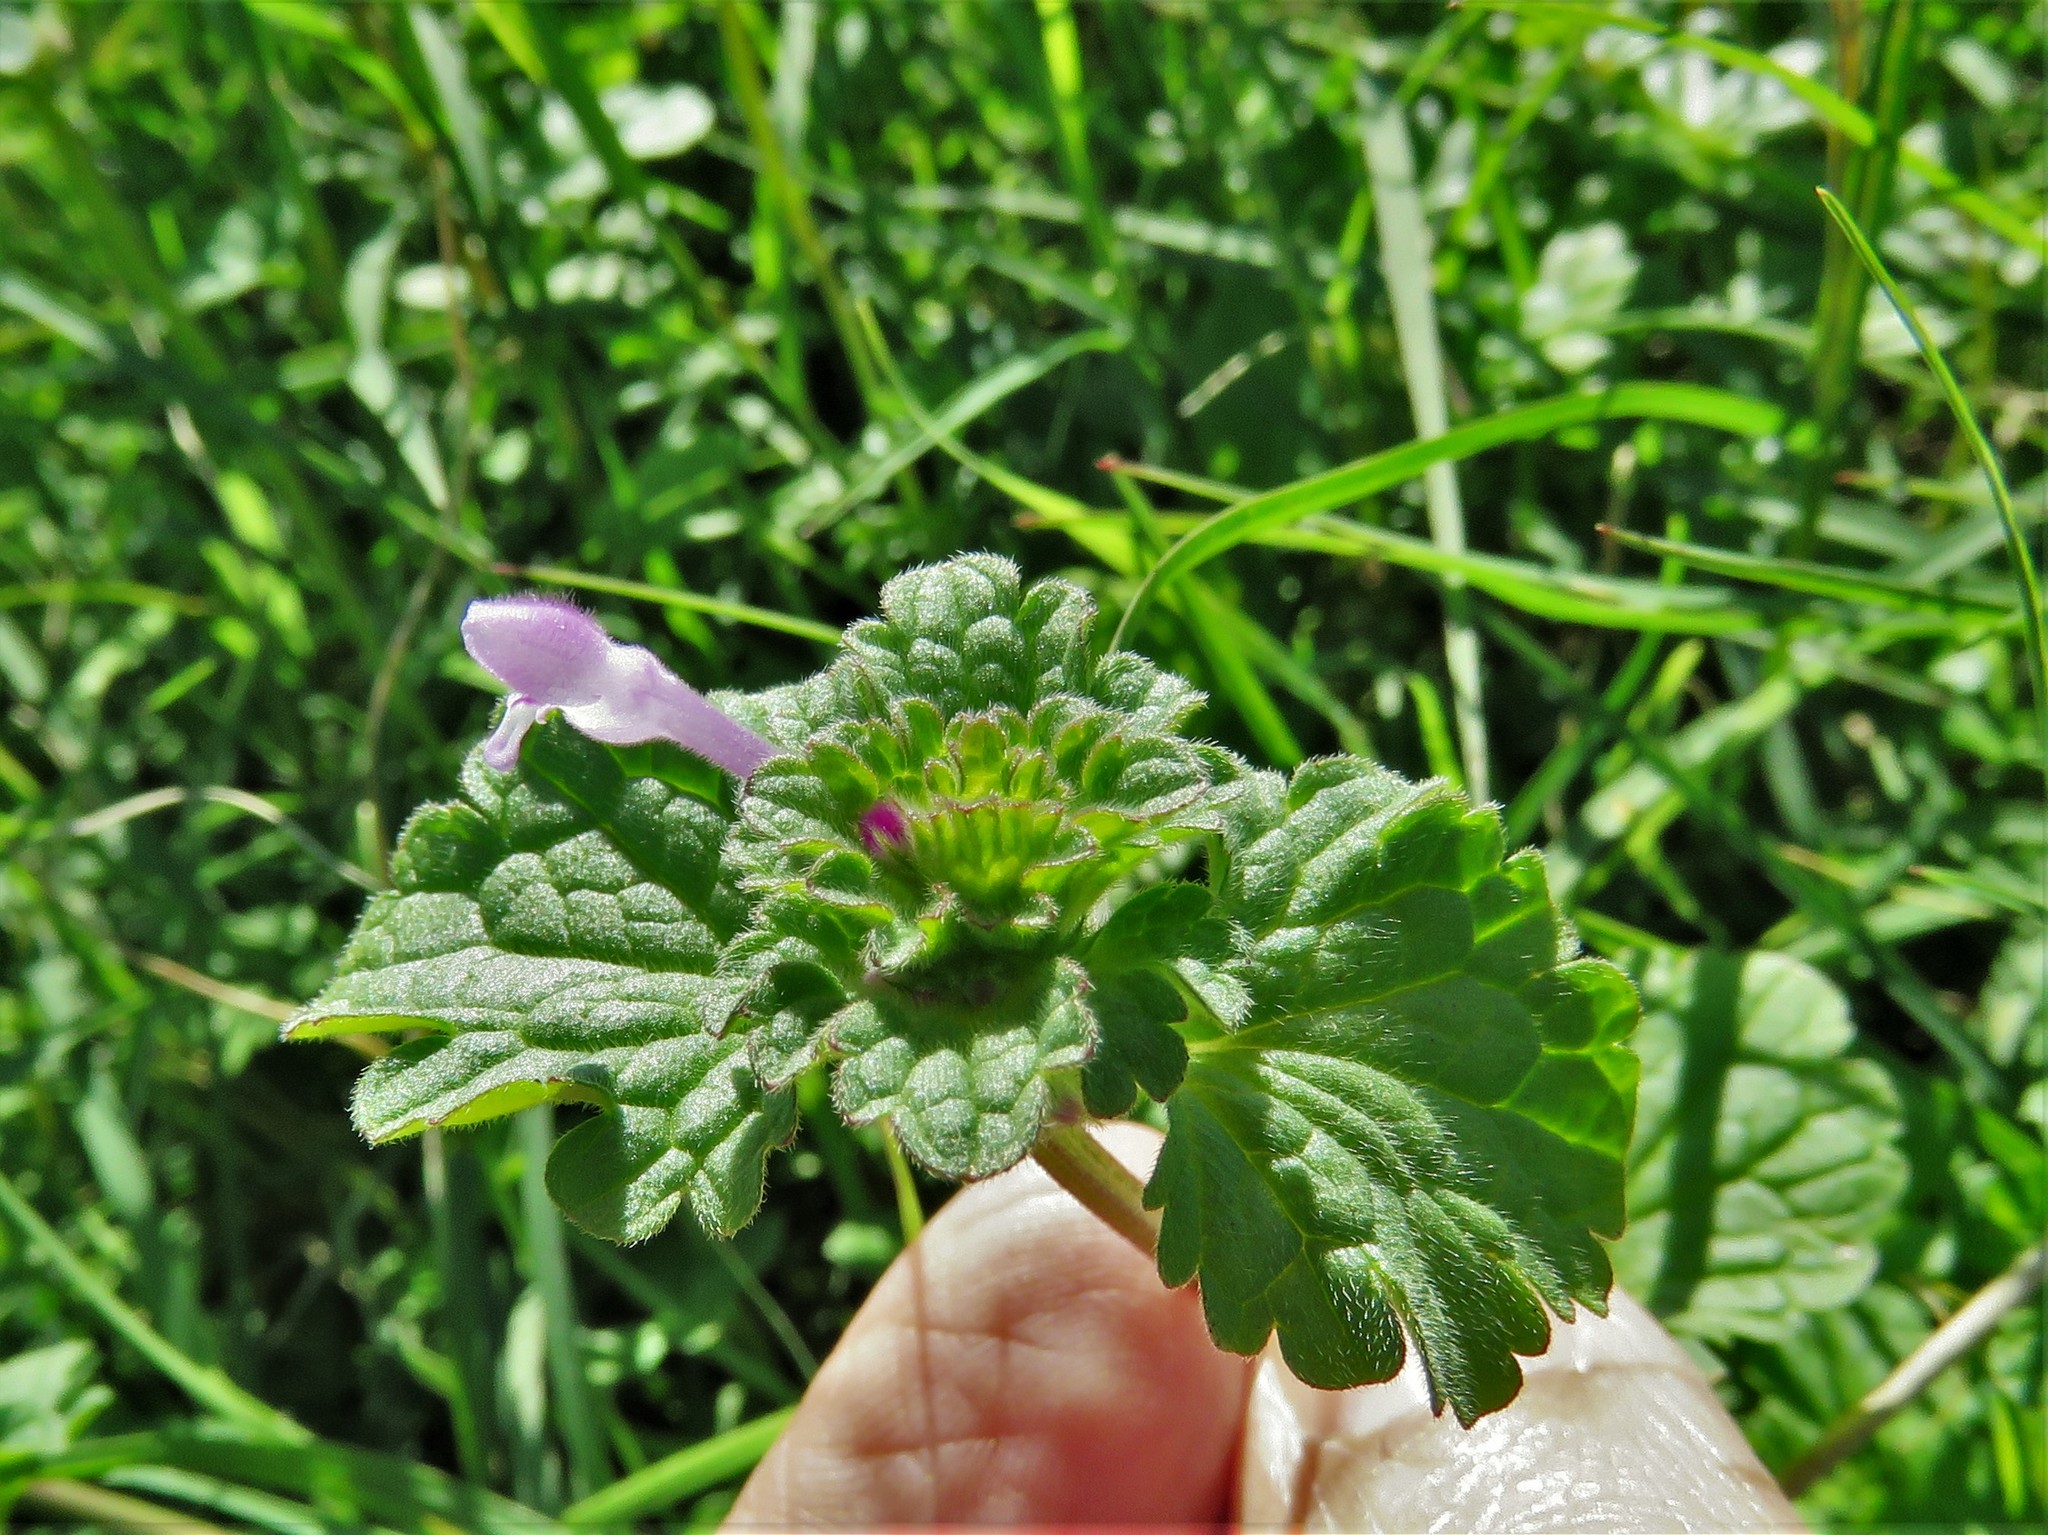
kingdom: Plantae
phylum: Tracheophyta
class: Magnoliopsida
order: Lamiales
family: Lamiaceae
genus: Lamium
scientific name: Lamium amplexicaule
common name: Henbit dead-nettle
